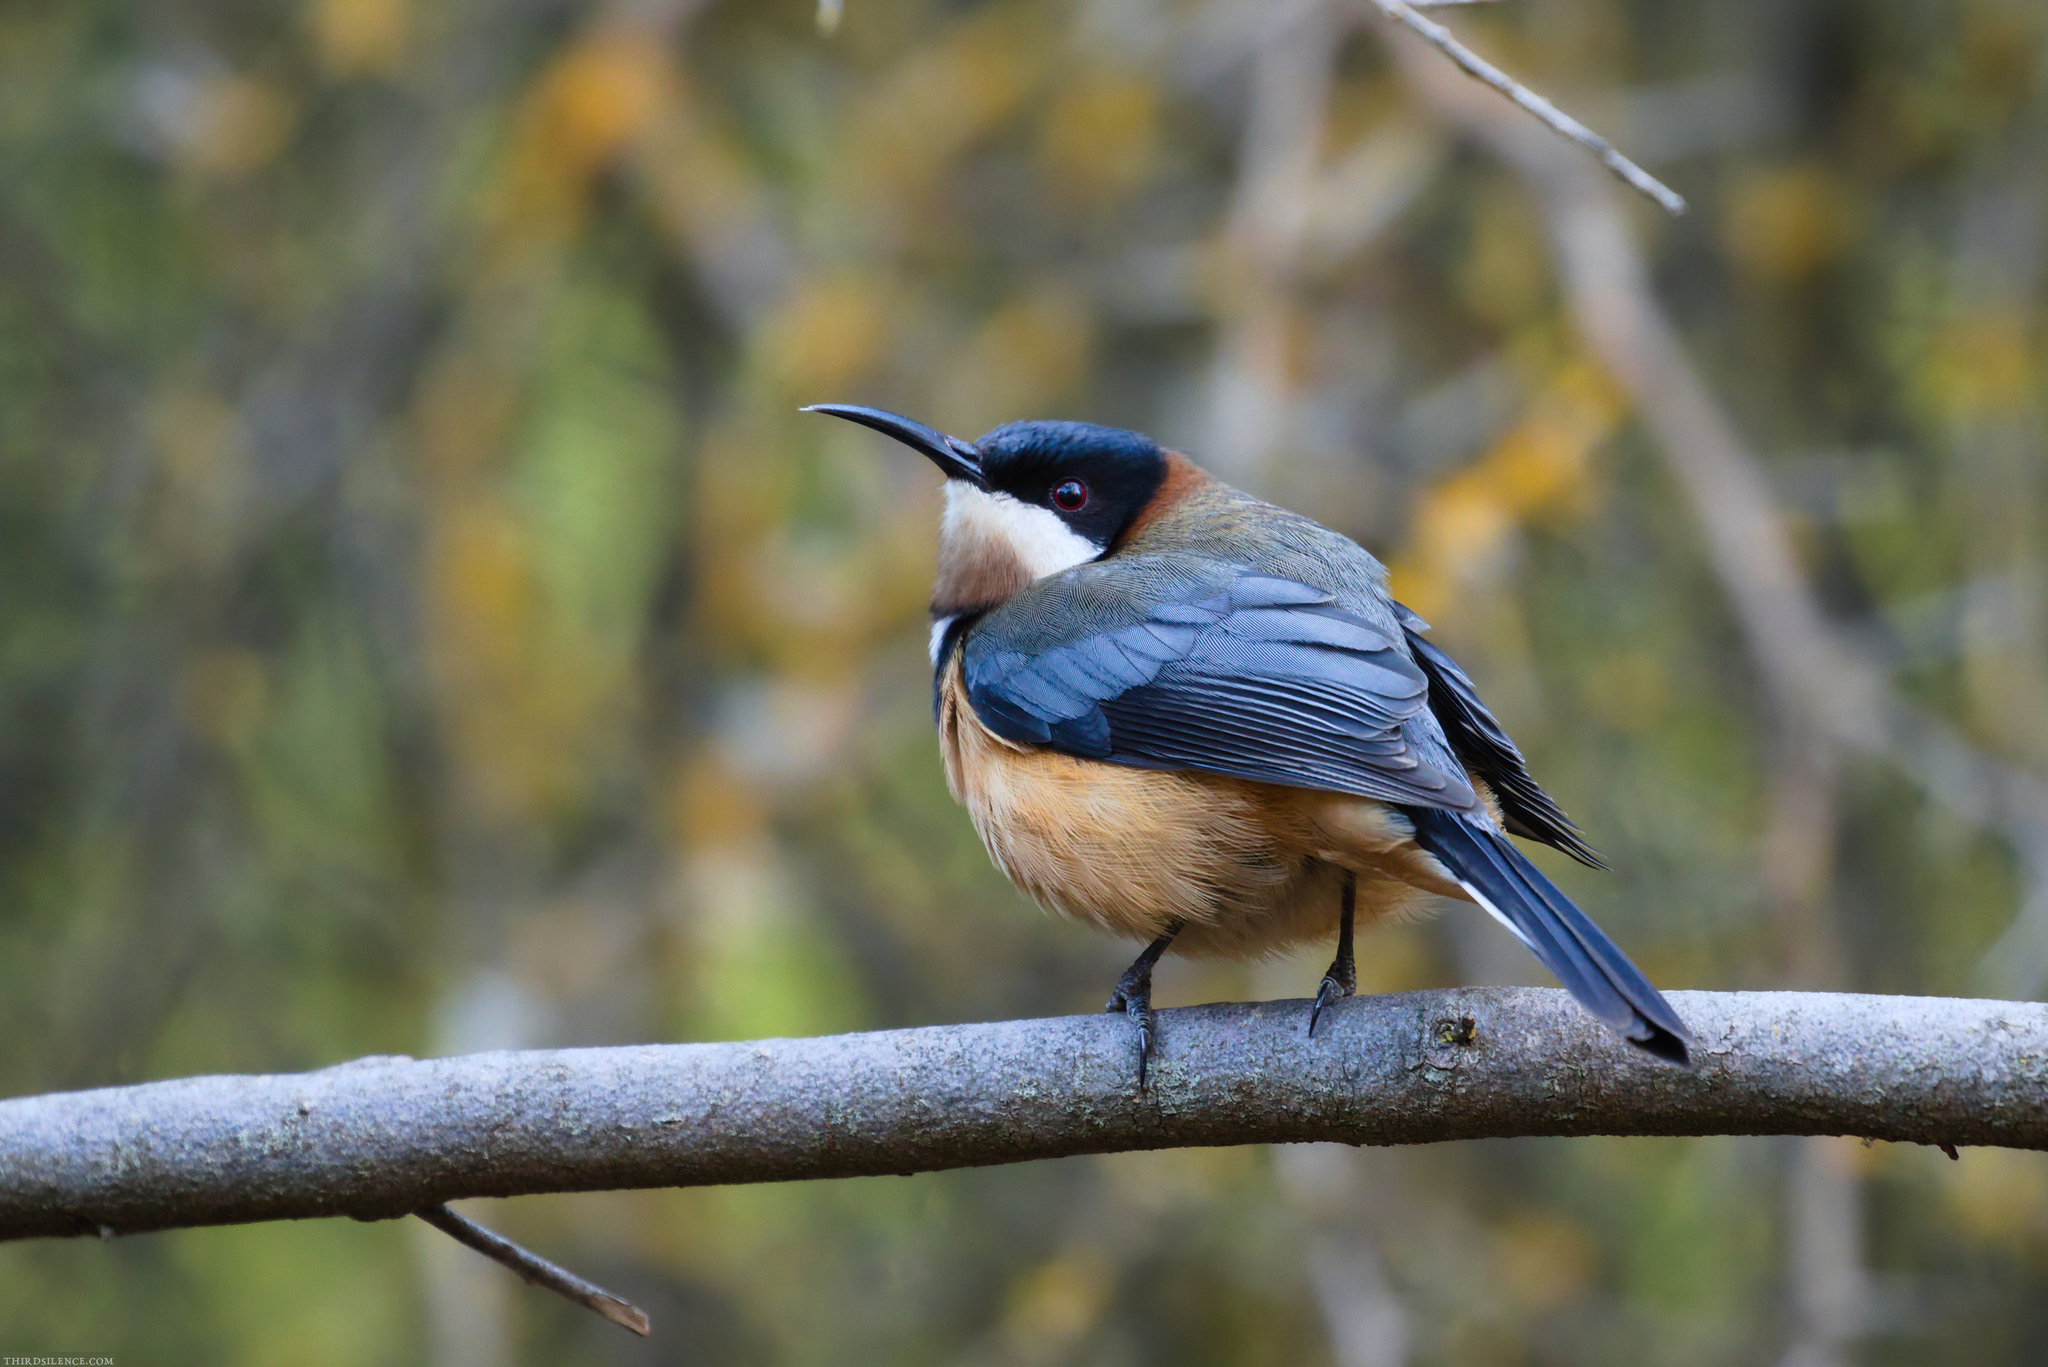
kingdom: Animalia
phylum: Chordata
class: Aves
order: Passeriformes
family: Meliphagidae
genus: Acanthorhynchus
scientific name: Acanthorhynchus tenuirostris
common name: Eastern spinebill
